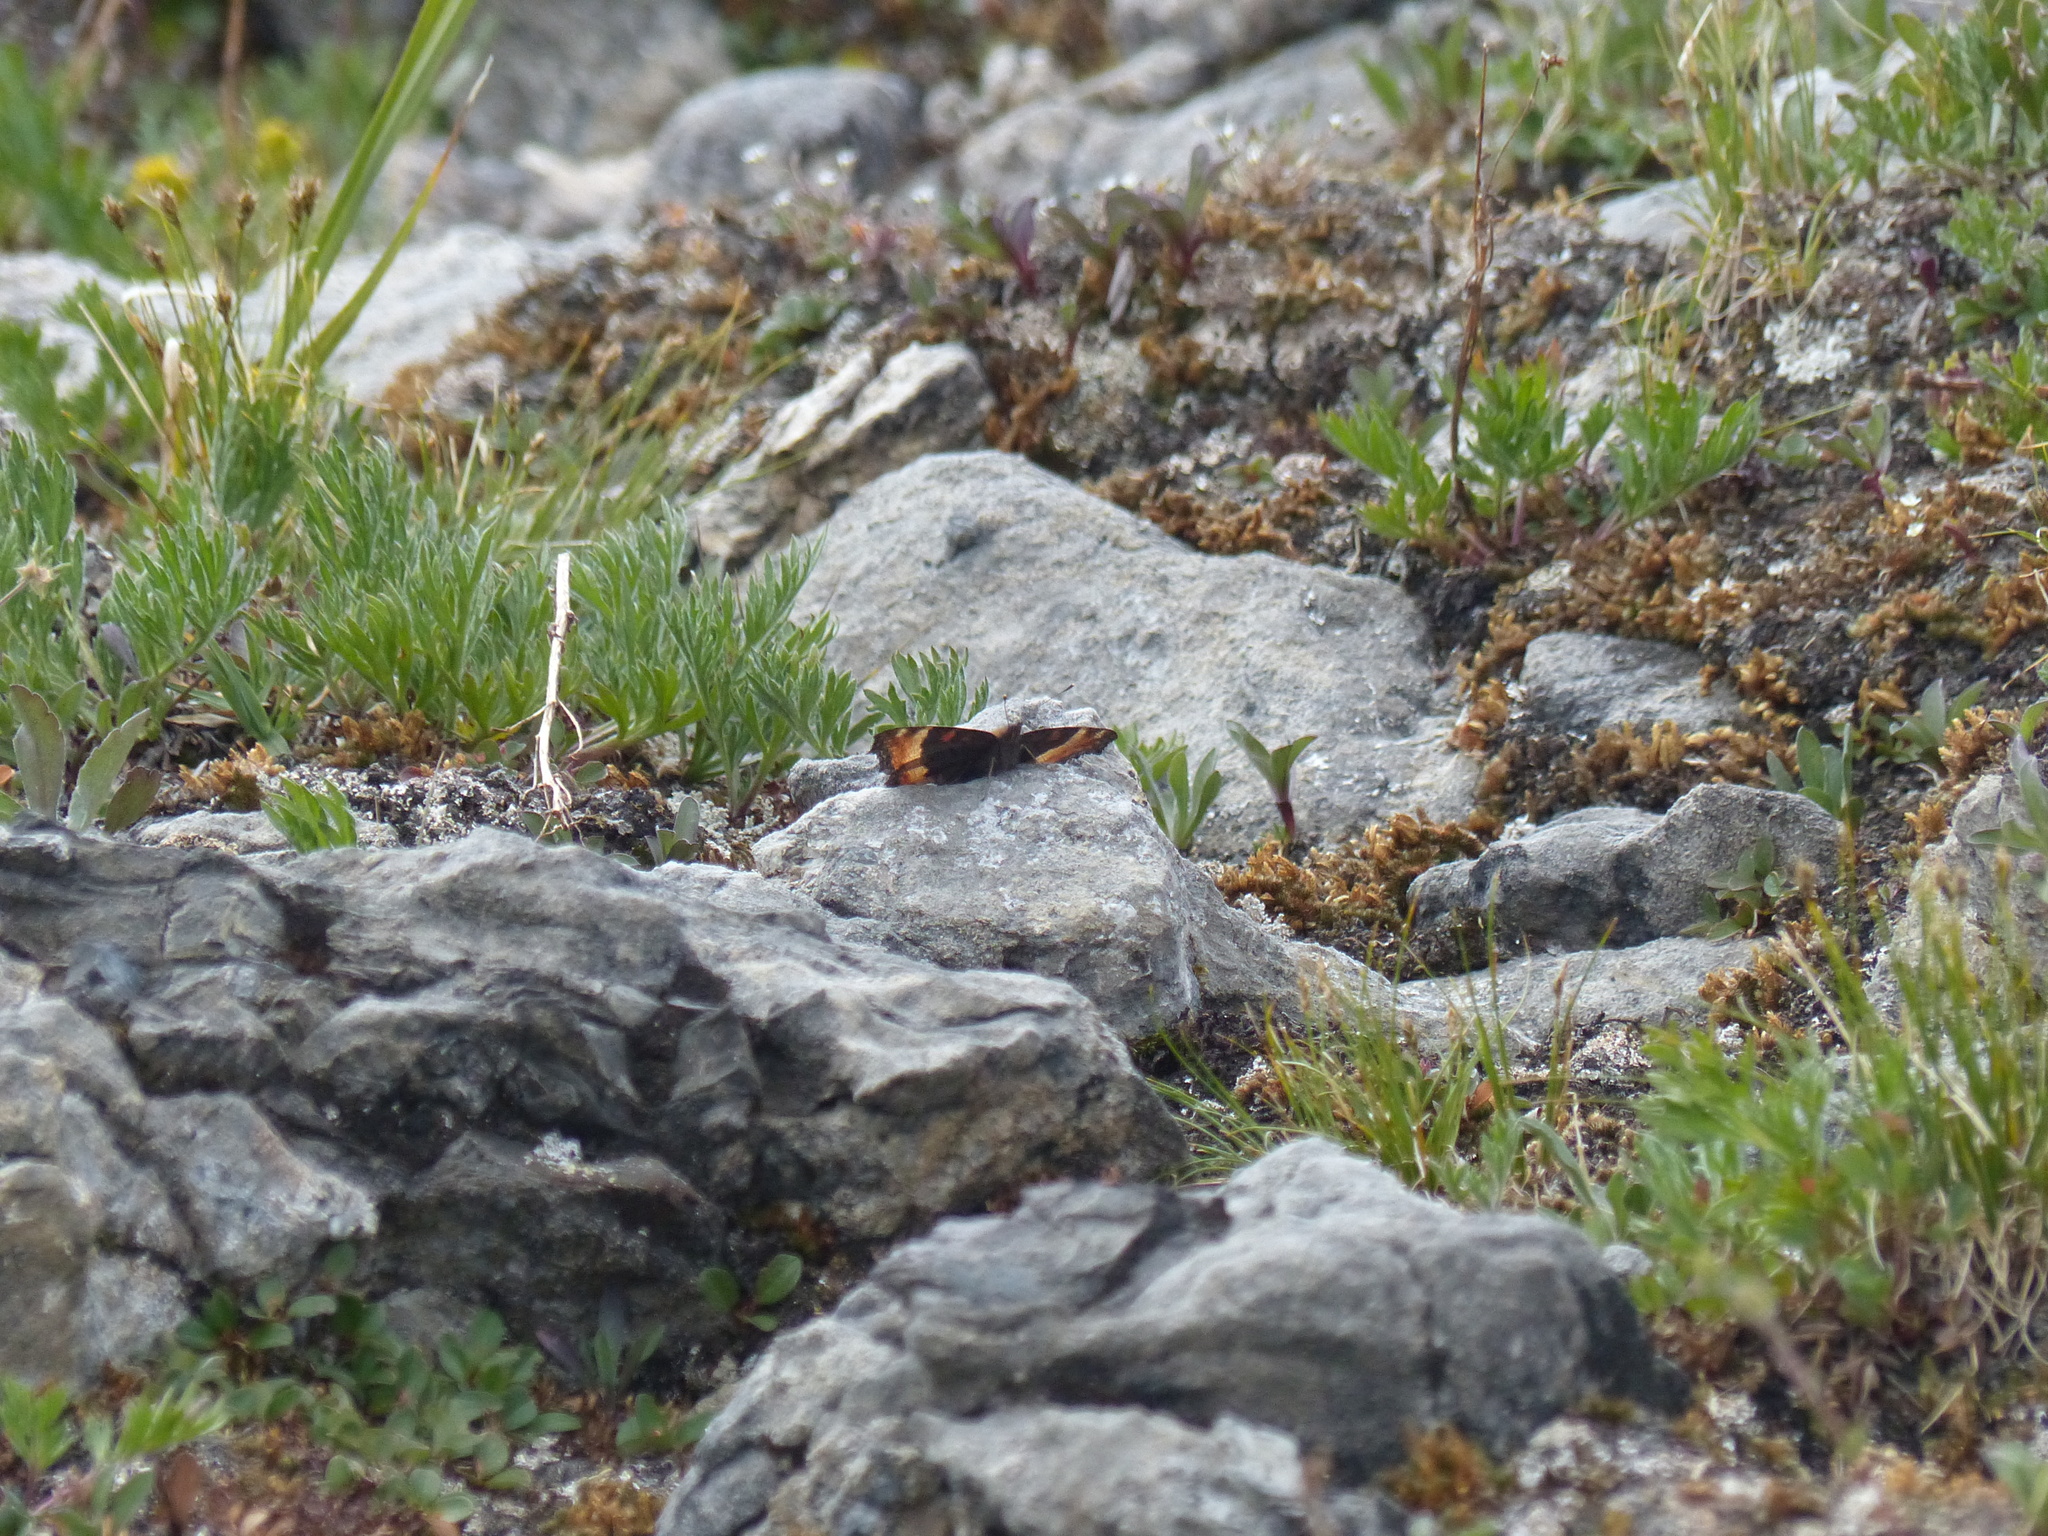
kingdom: Animalia
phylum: Arthropoda
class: Insecta
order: Lepidoptera
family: Nymphalidae
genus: Aglais
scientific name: Aglais milberti
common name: Milbert's tortoiseshell
